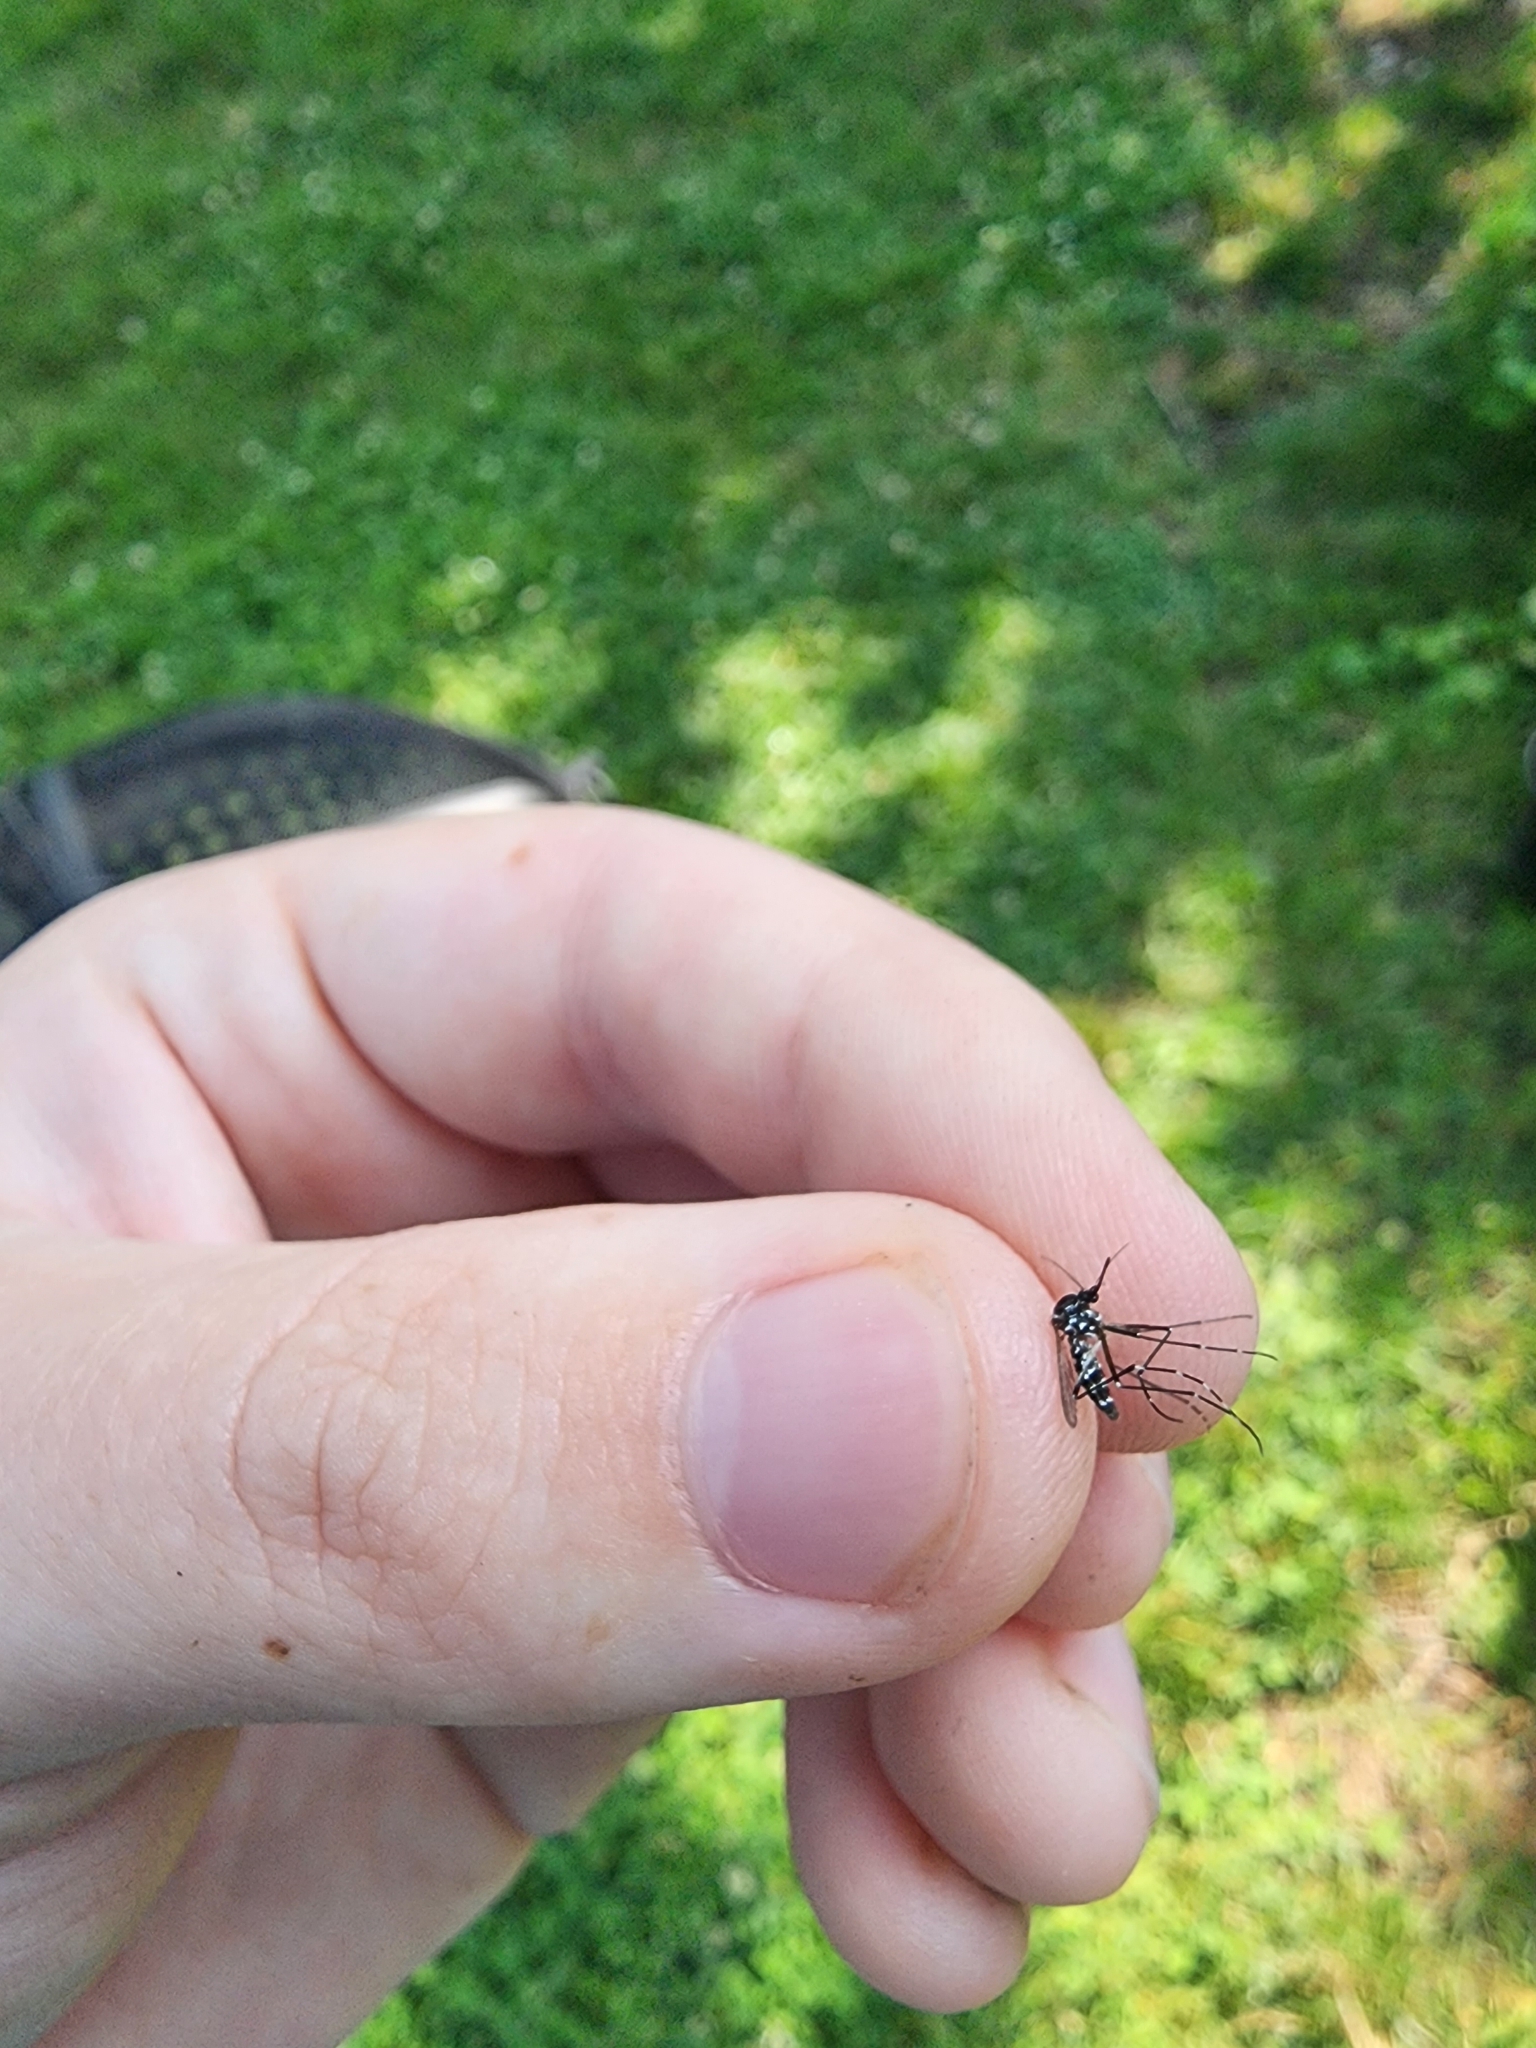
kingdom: Animalia
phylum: Arthropoda
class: Insecta
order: Diptera
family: Culicidae
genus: Aedes
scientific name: Aedes albopictus
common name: Tiger mosquito
